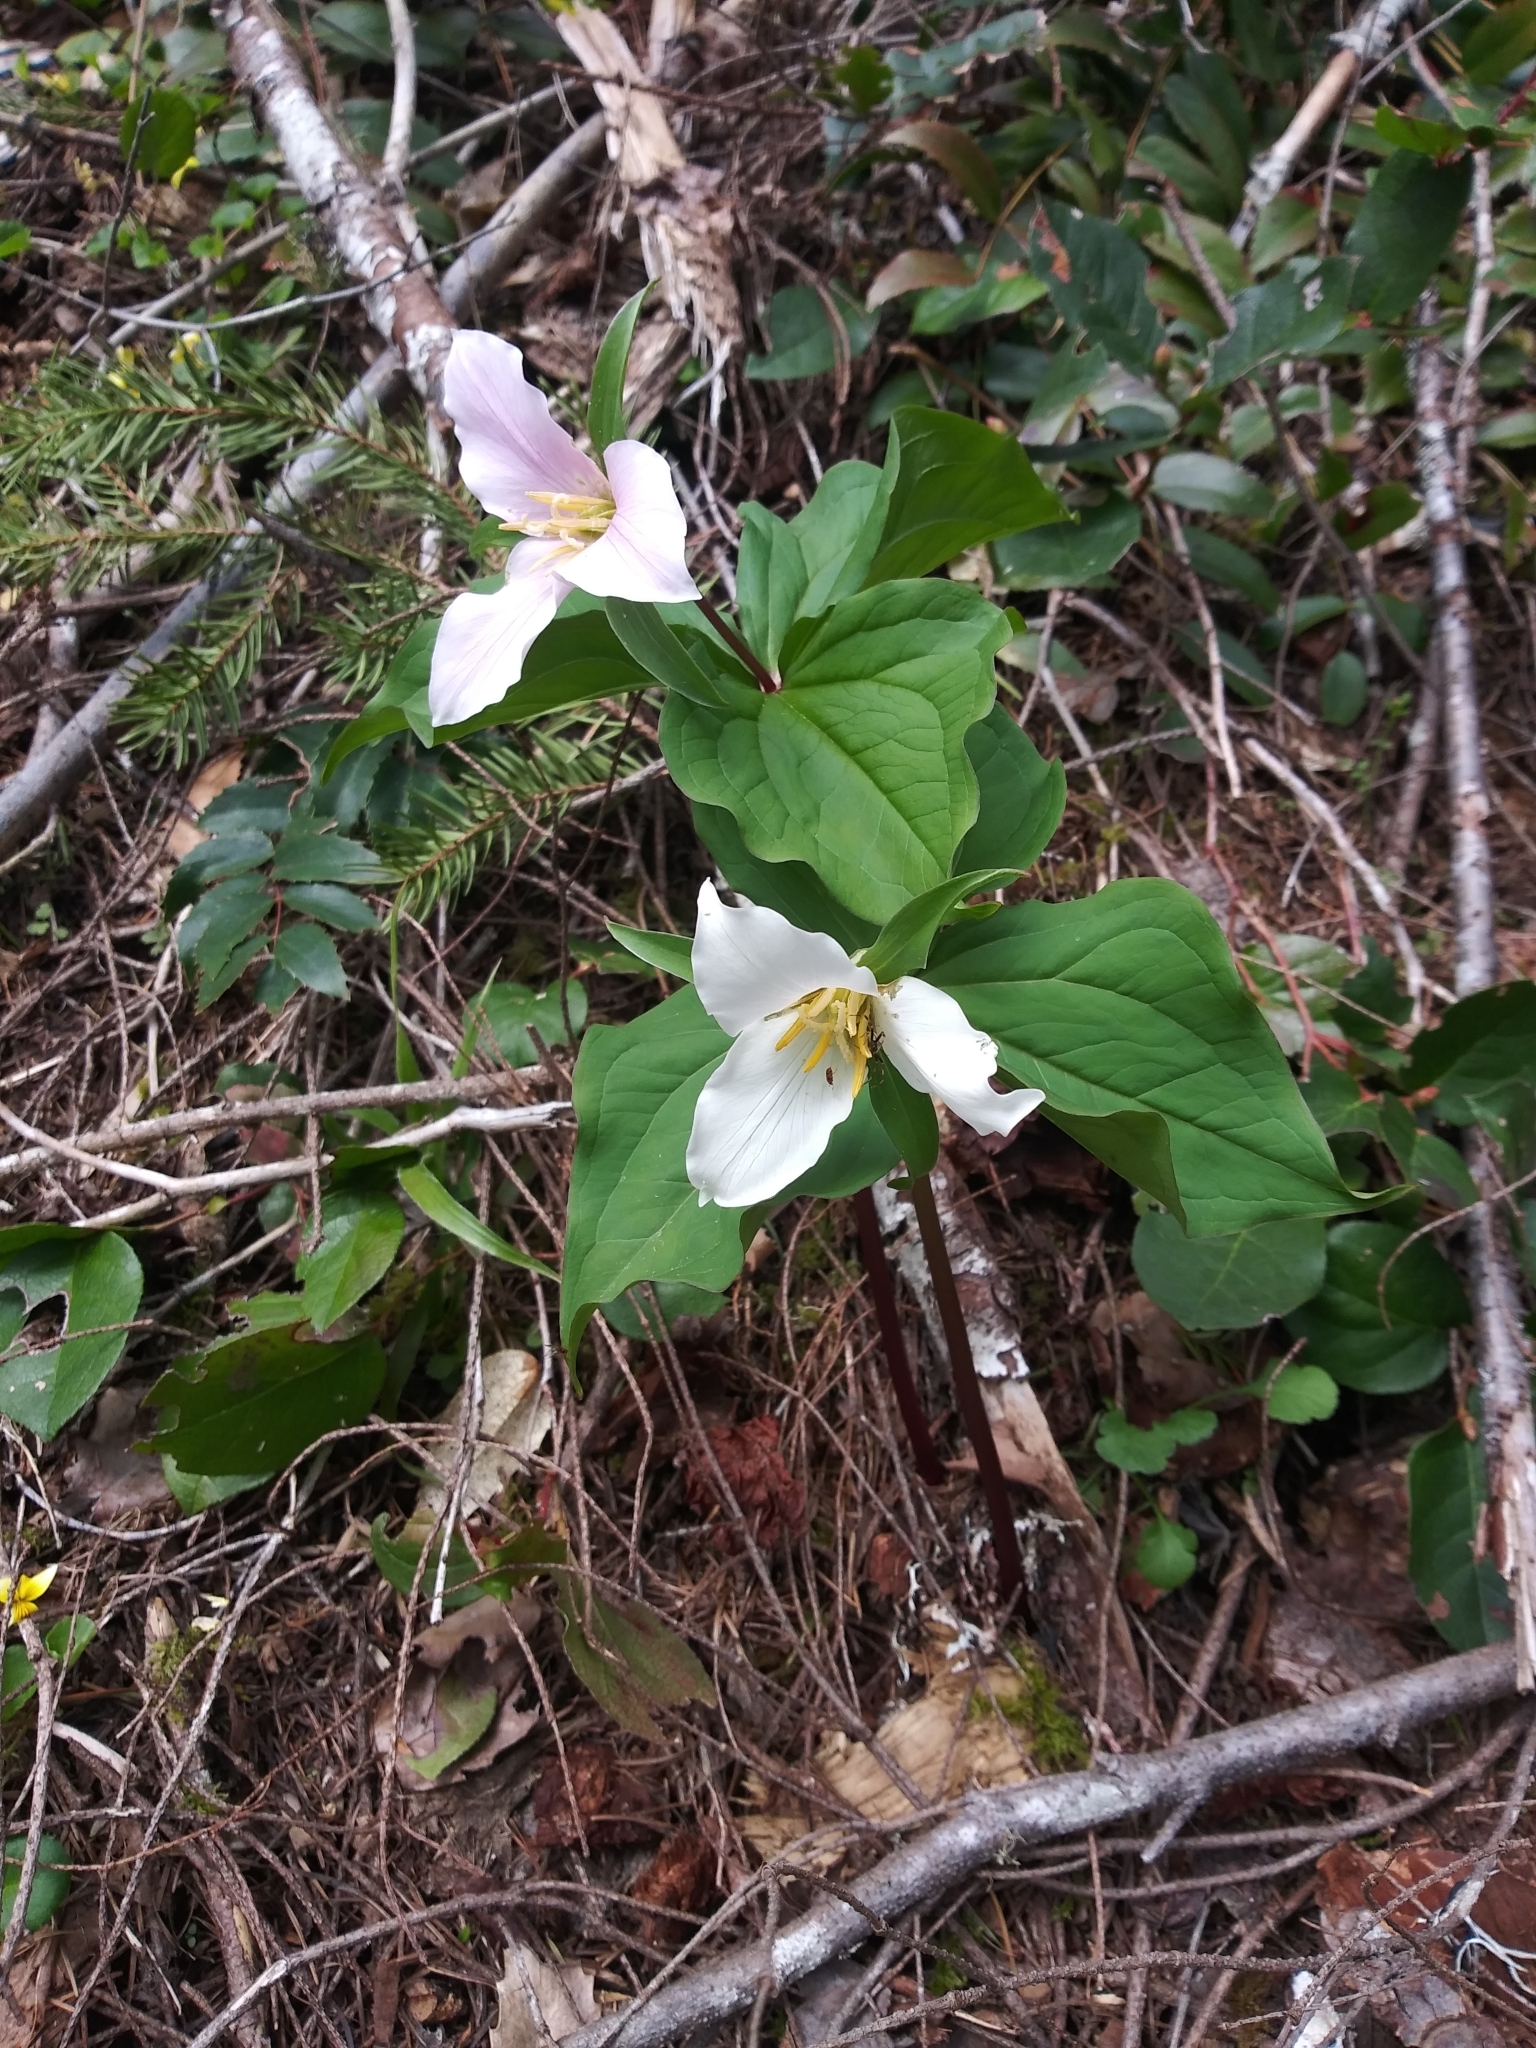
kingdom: Plantae
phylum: Tracheophyta
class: Liliopsida
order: Liliales
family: Melanthiaceae
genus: Trillium
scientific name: Trillium ovatum
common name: Pacific trillium
